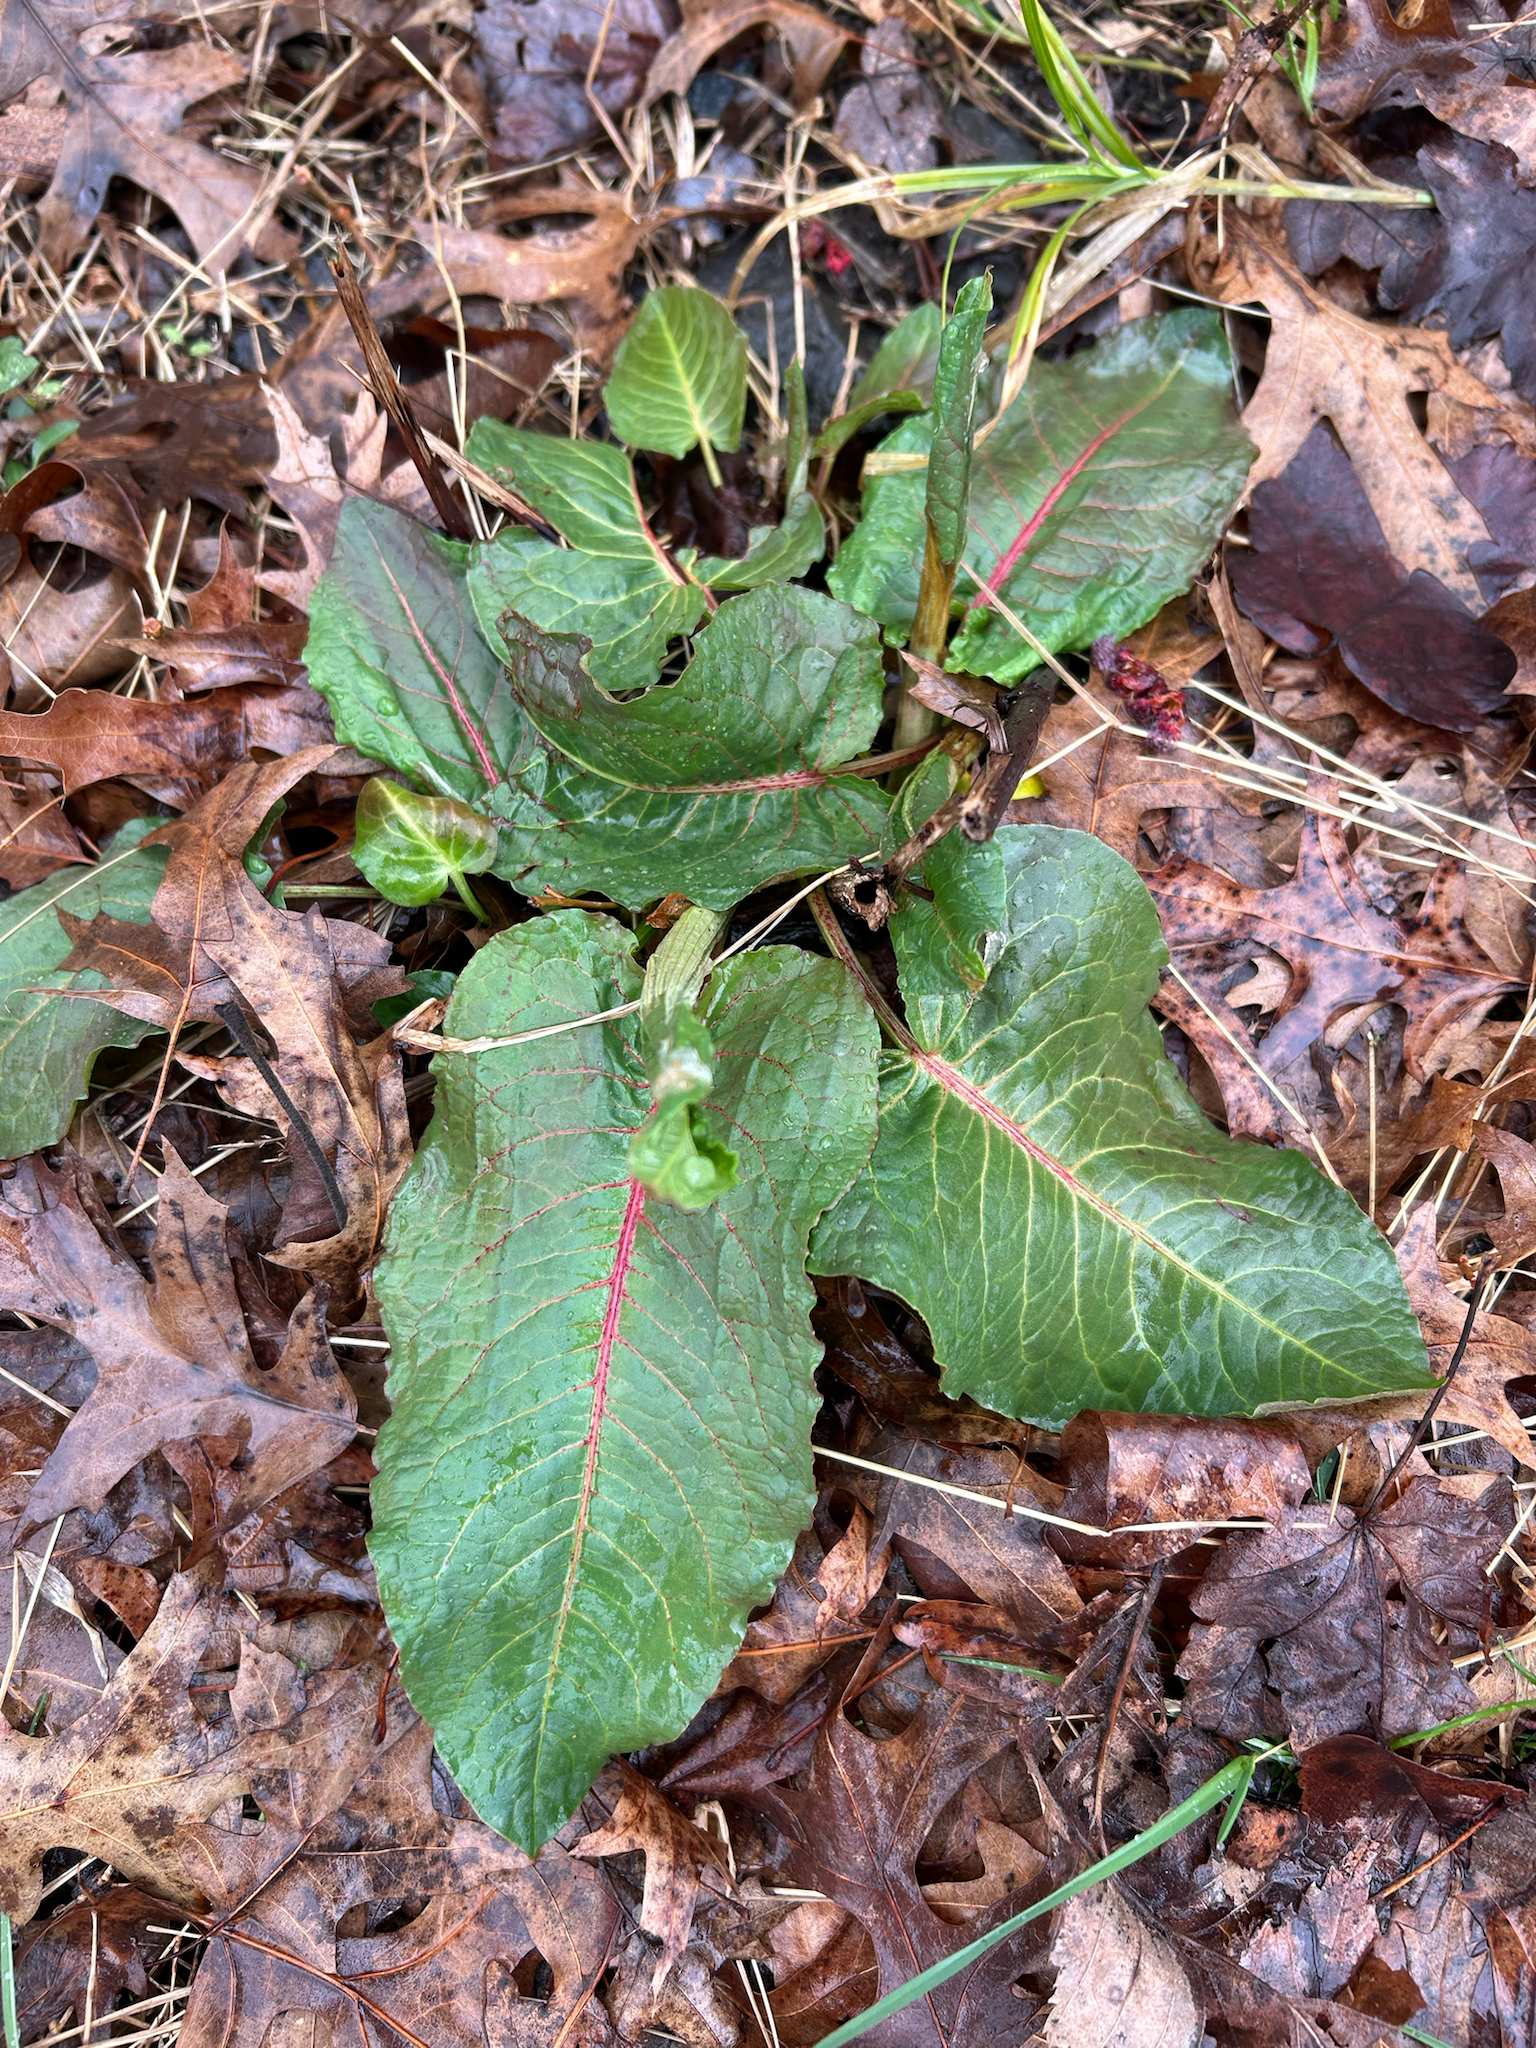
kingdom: Plantae
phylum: Tracheophyta
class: Magnoliopsida
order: Caryophyllales
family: Polygonaceae
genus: Rumex
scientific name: Rumex obtusifolius
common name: Bitter dock
